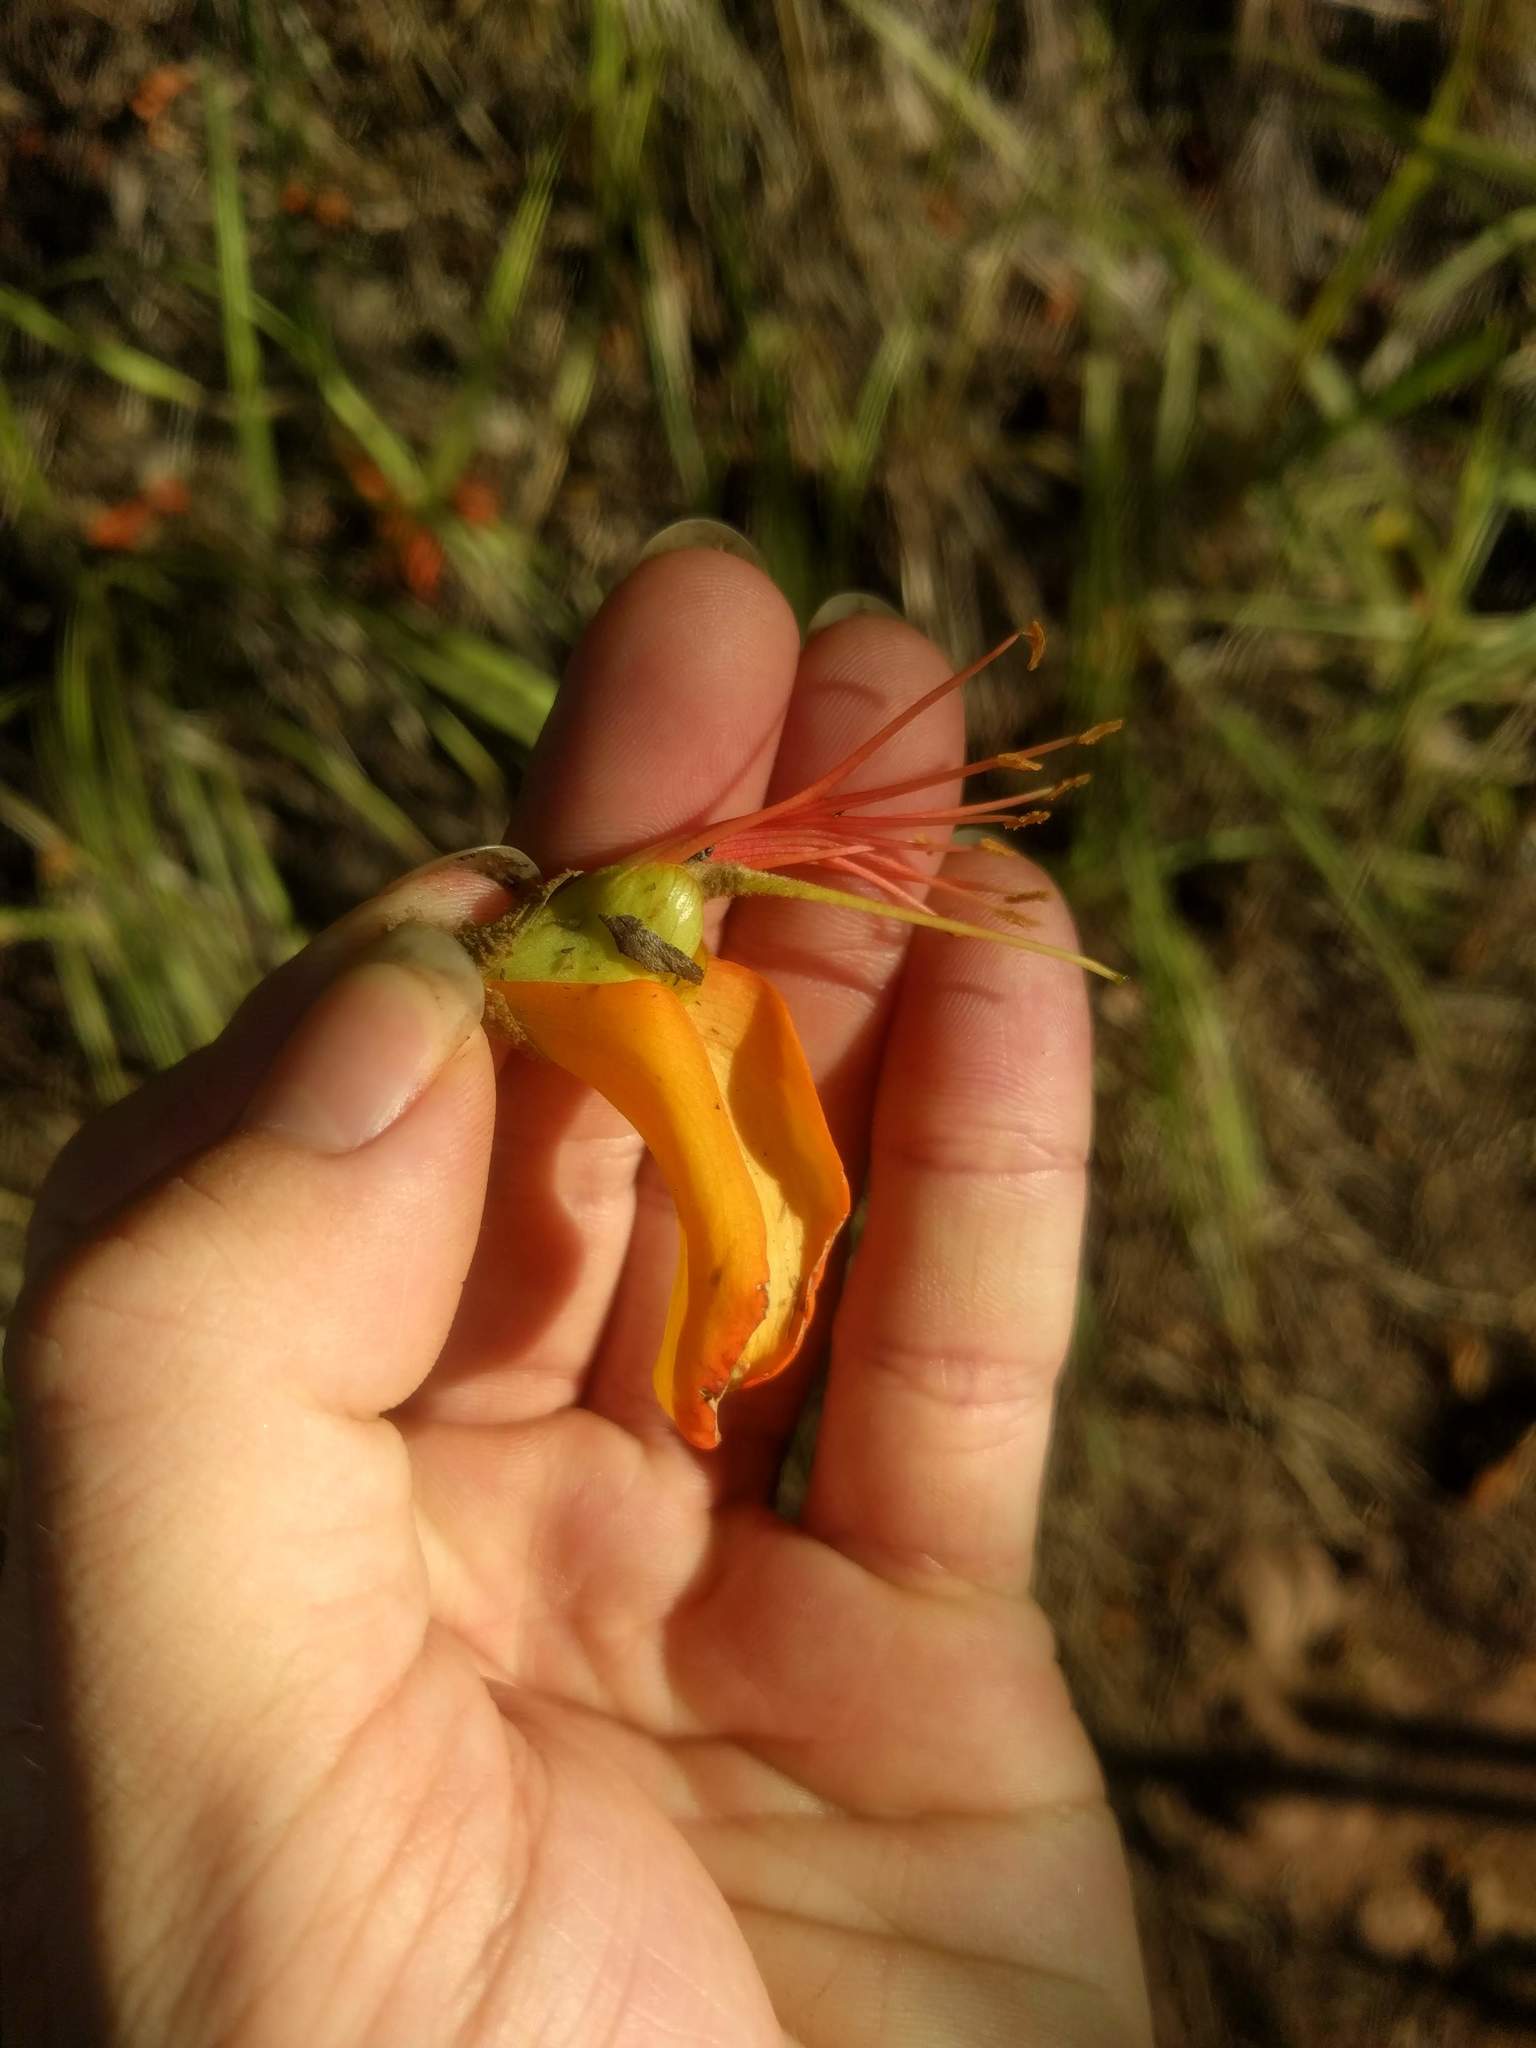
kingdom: Plantae
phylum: Tracheophyta
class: Magnoliopsida
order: Fabales
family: Fabaceae
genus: Erythrina
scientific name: Erythrina sandwicensis
